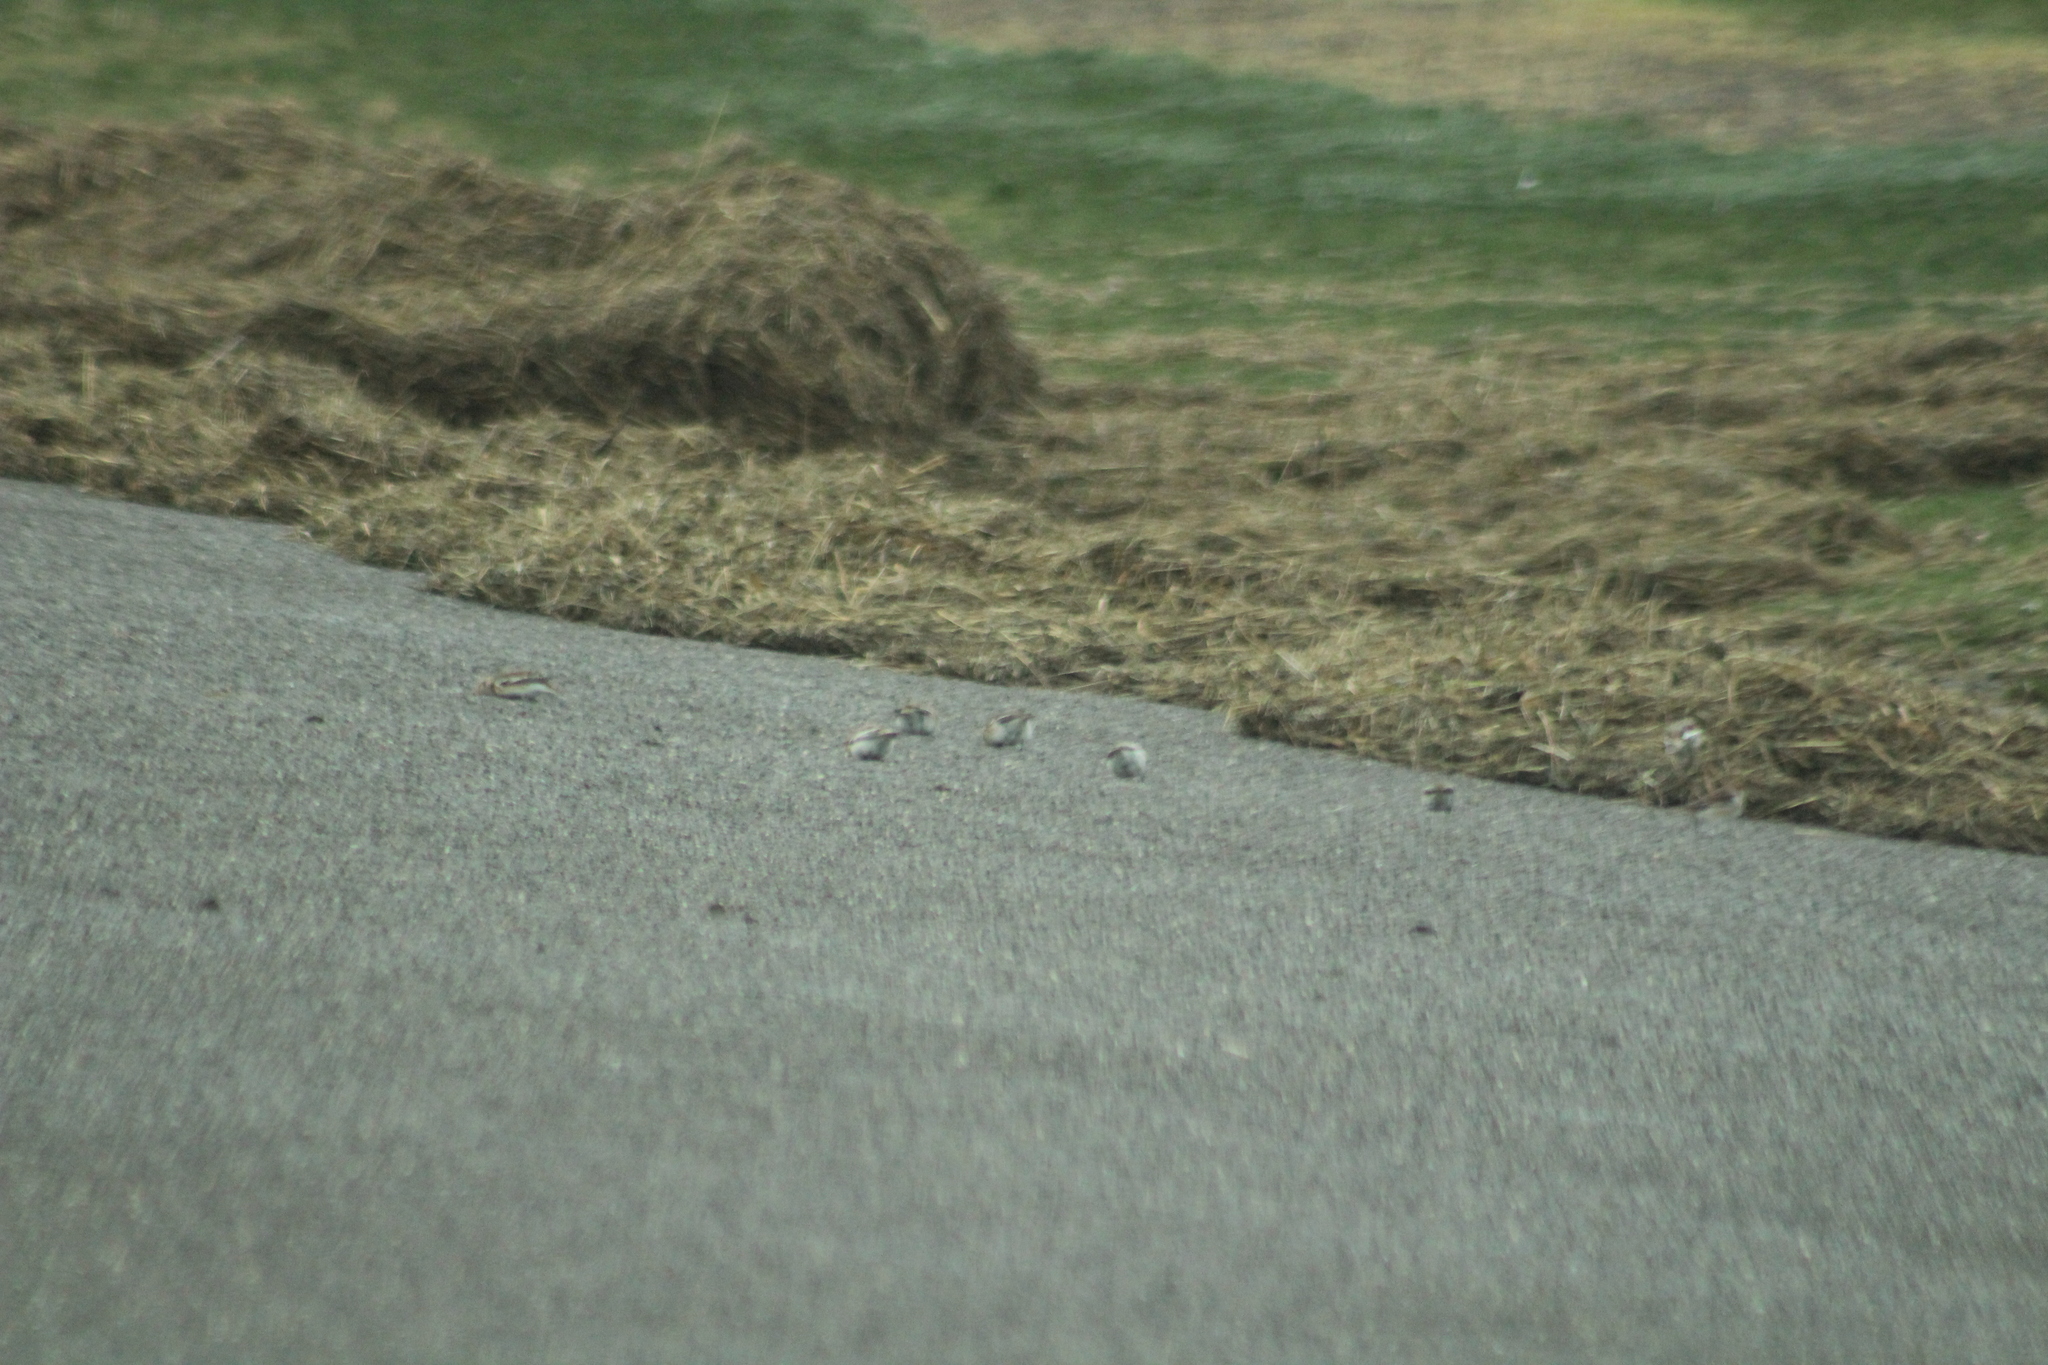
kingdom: Animalia
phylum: Chordata
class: Aves
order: Passeriformes
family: Calcariidae
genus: Plectrophenax
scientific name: Plectrophenax nivalis
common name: Snow bunting
